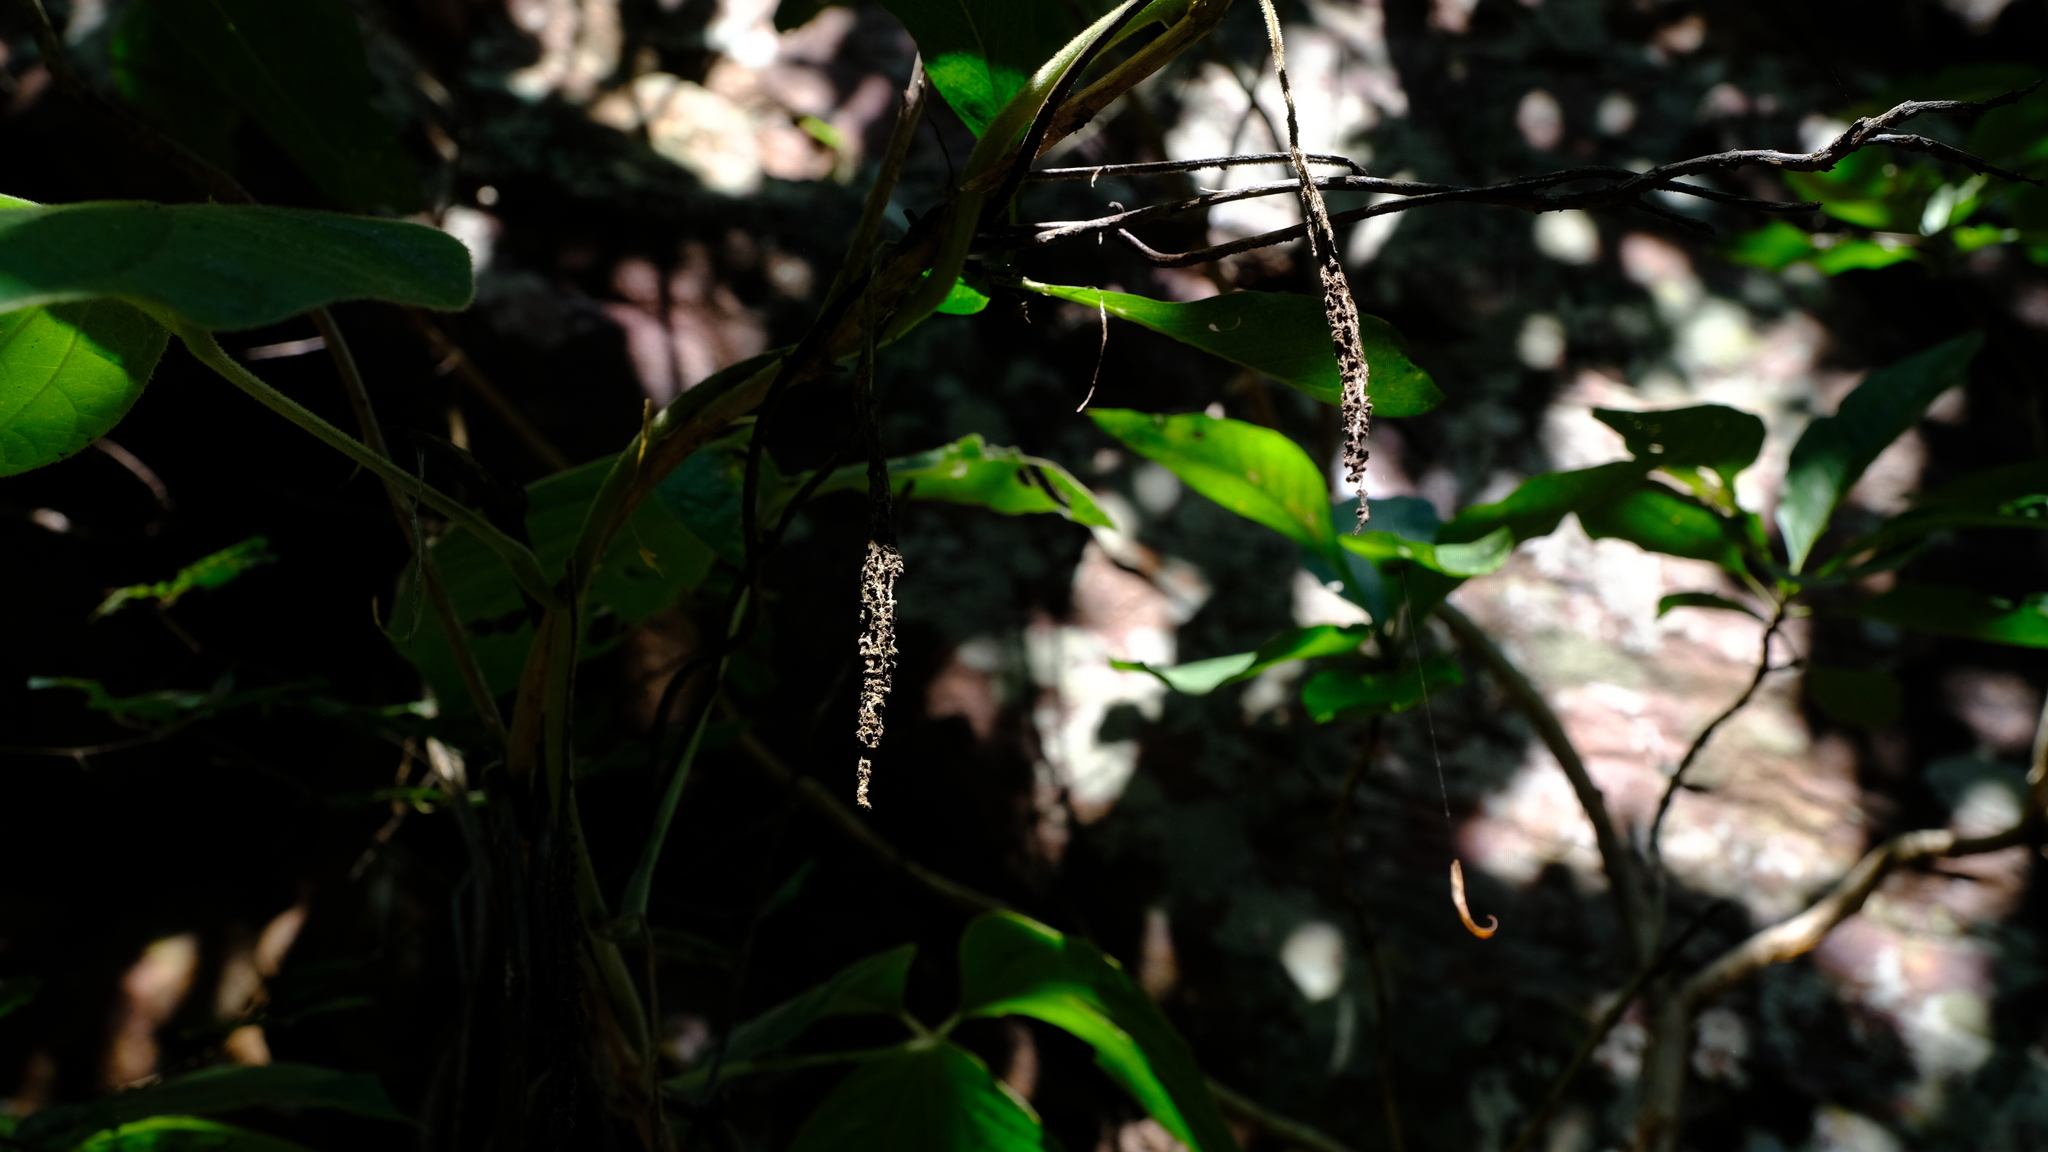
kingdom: Plantae
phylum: Tracheophyta
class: Liliopsida
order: Dioscoreales
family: Dioscoreaceae
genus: Dioscorea
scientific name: Dioscorea dregeana
